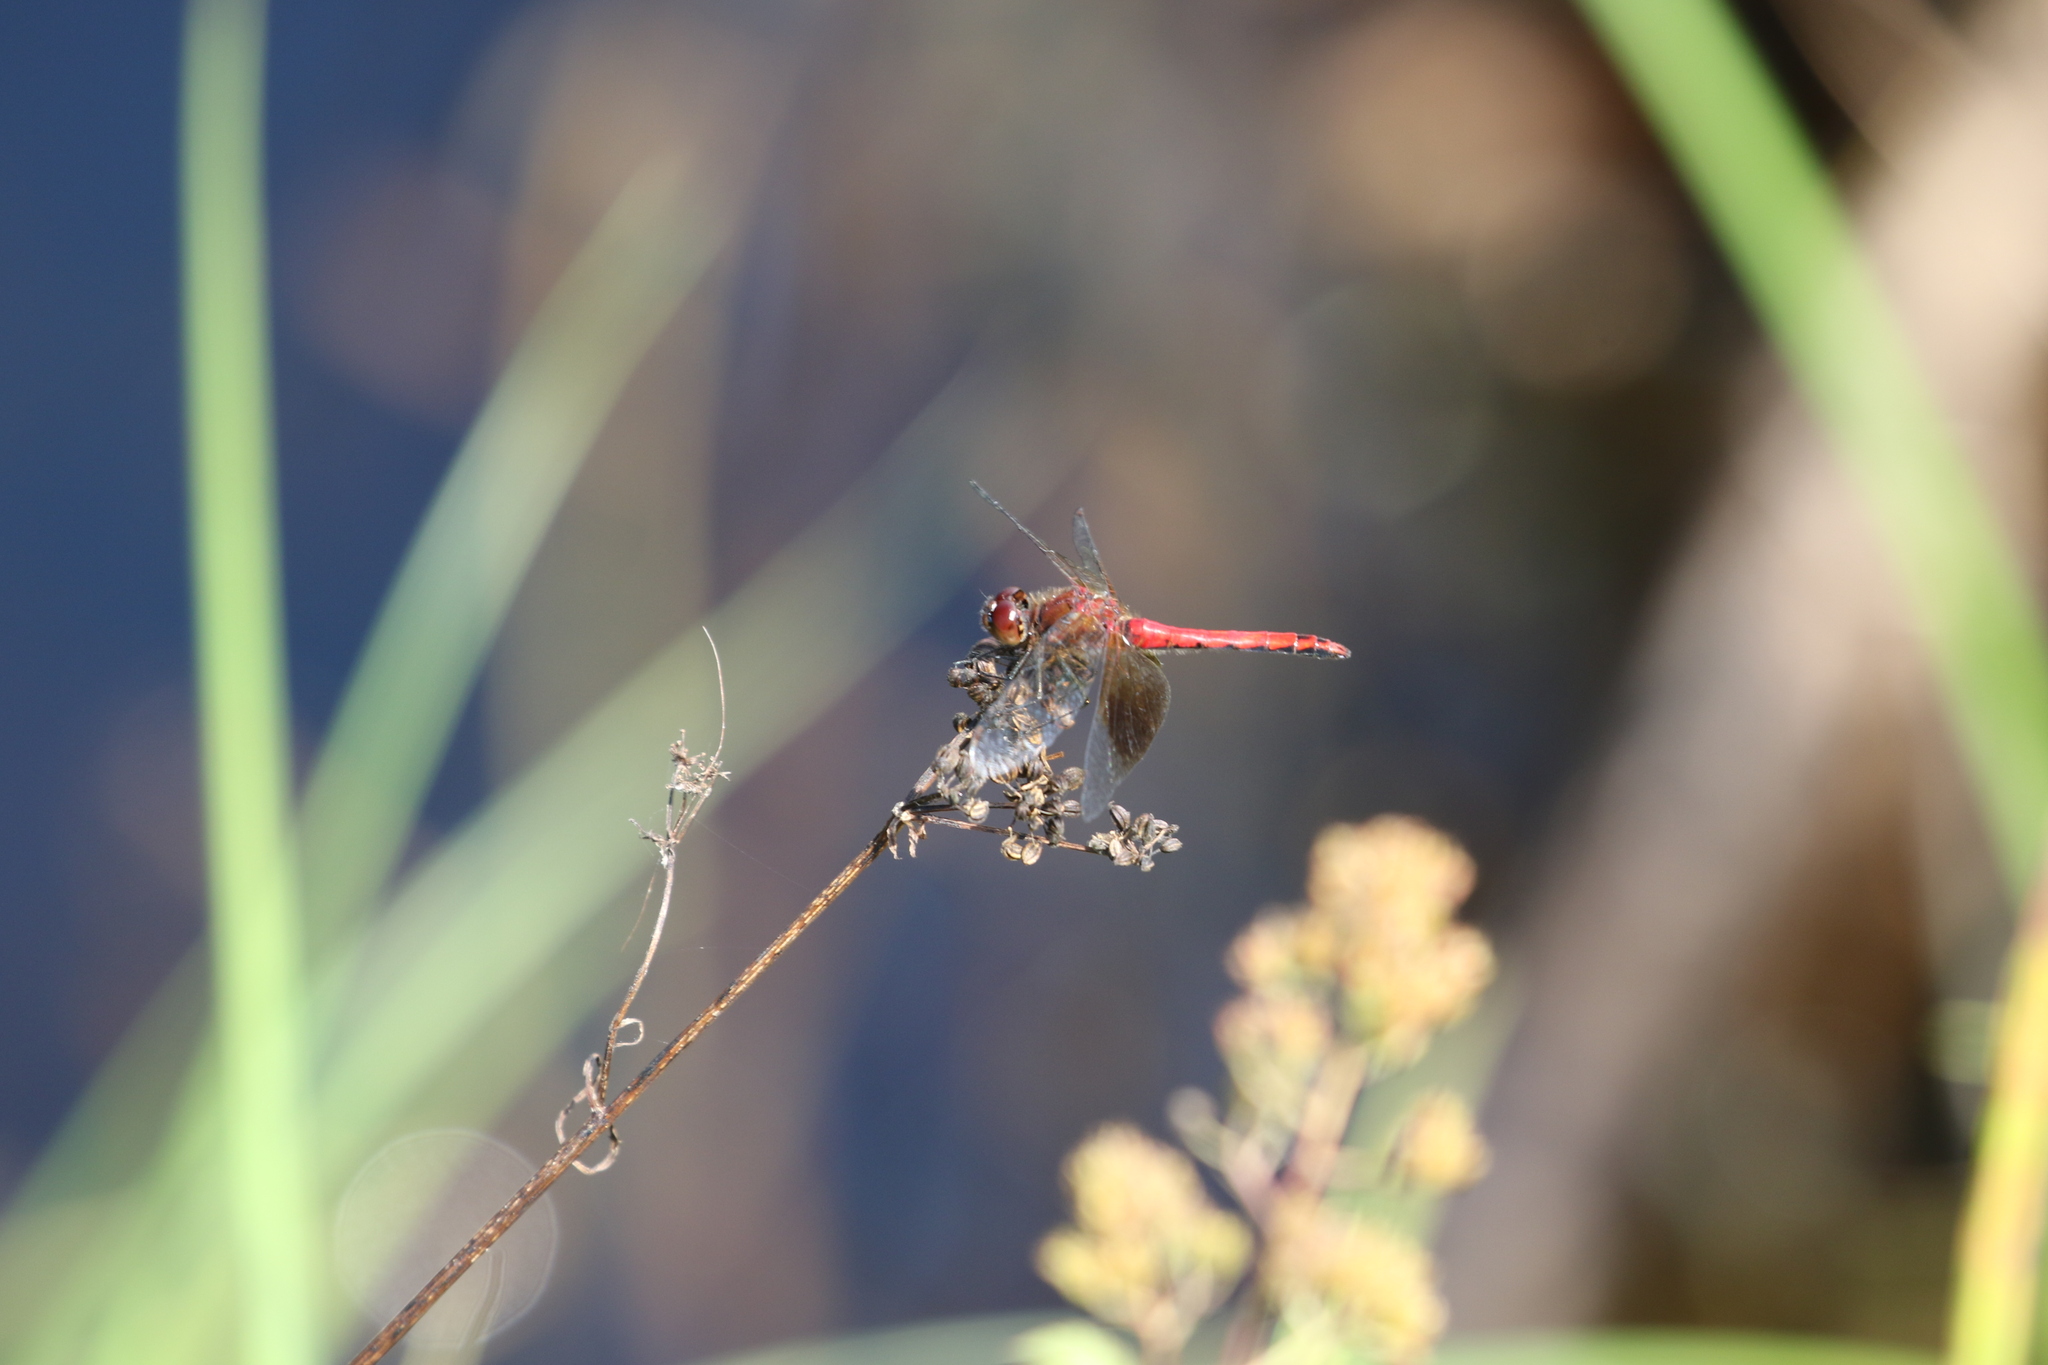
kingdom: Animalia
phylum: Arthropoda
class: Insecta
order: Odonata
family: Libellulidae
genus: Sympetrum
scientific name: Sympetrum semicinctum
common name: Band-winged meadowhawk
